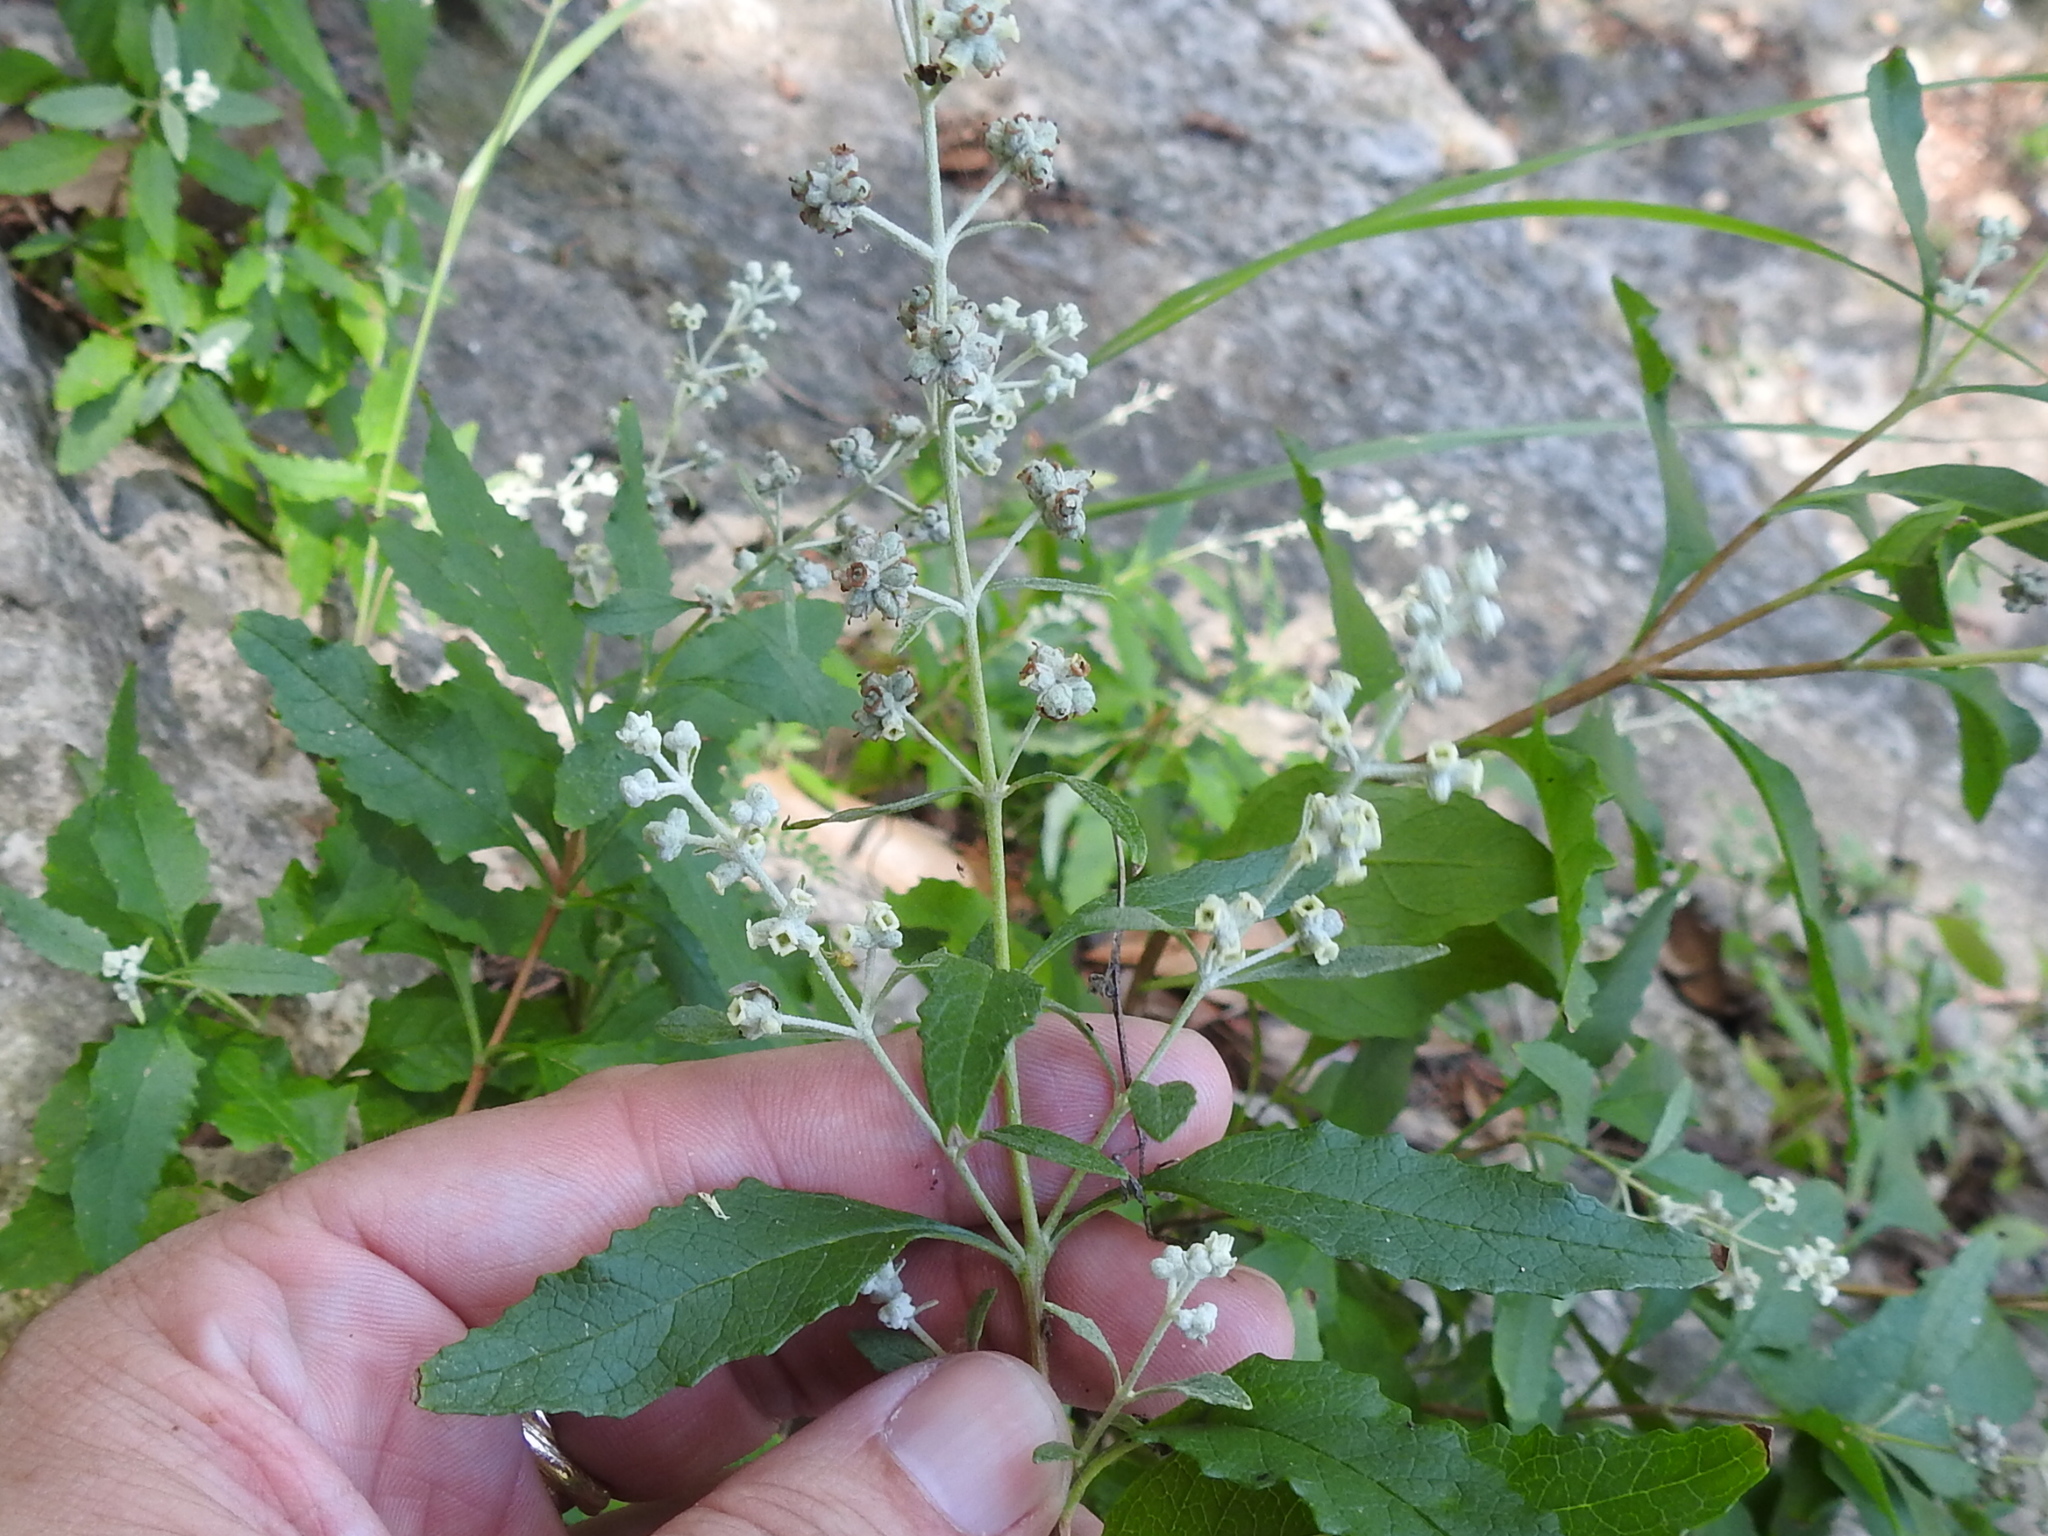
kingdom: Plantae
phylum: Tracheophyta
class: Magnoliopsida
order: Lamiales
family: Scrophulariaceae
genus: Buddleja
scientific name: Buddleja racemosa
